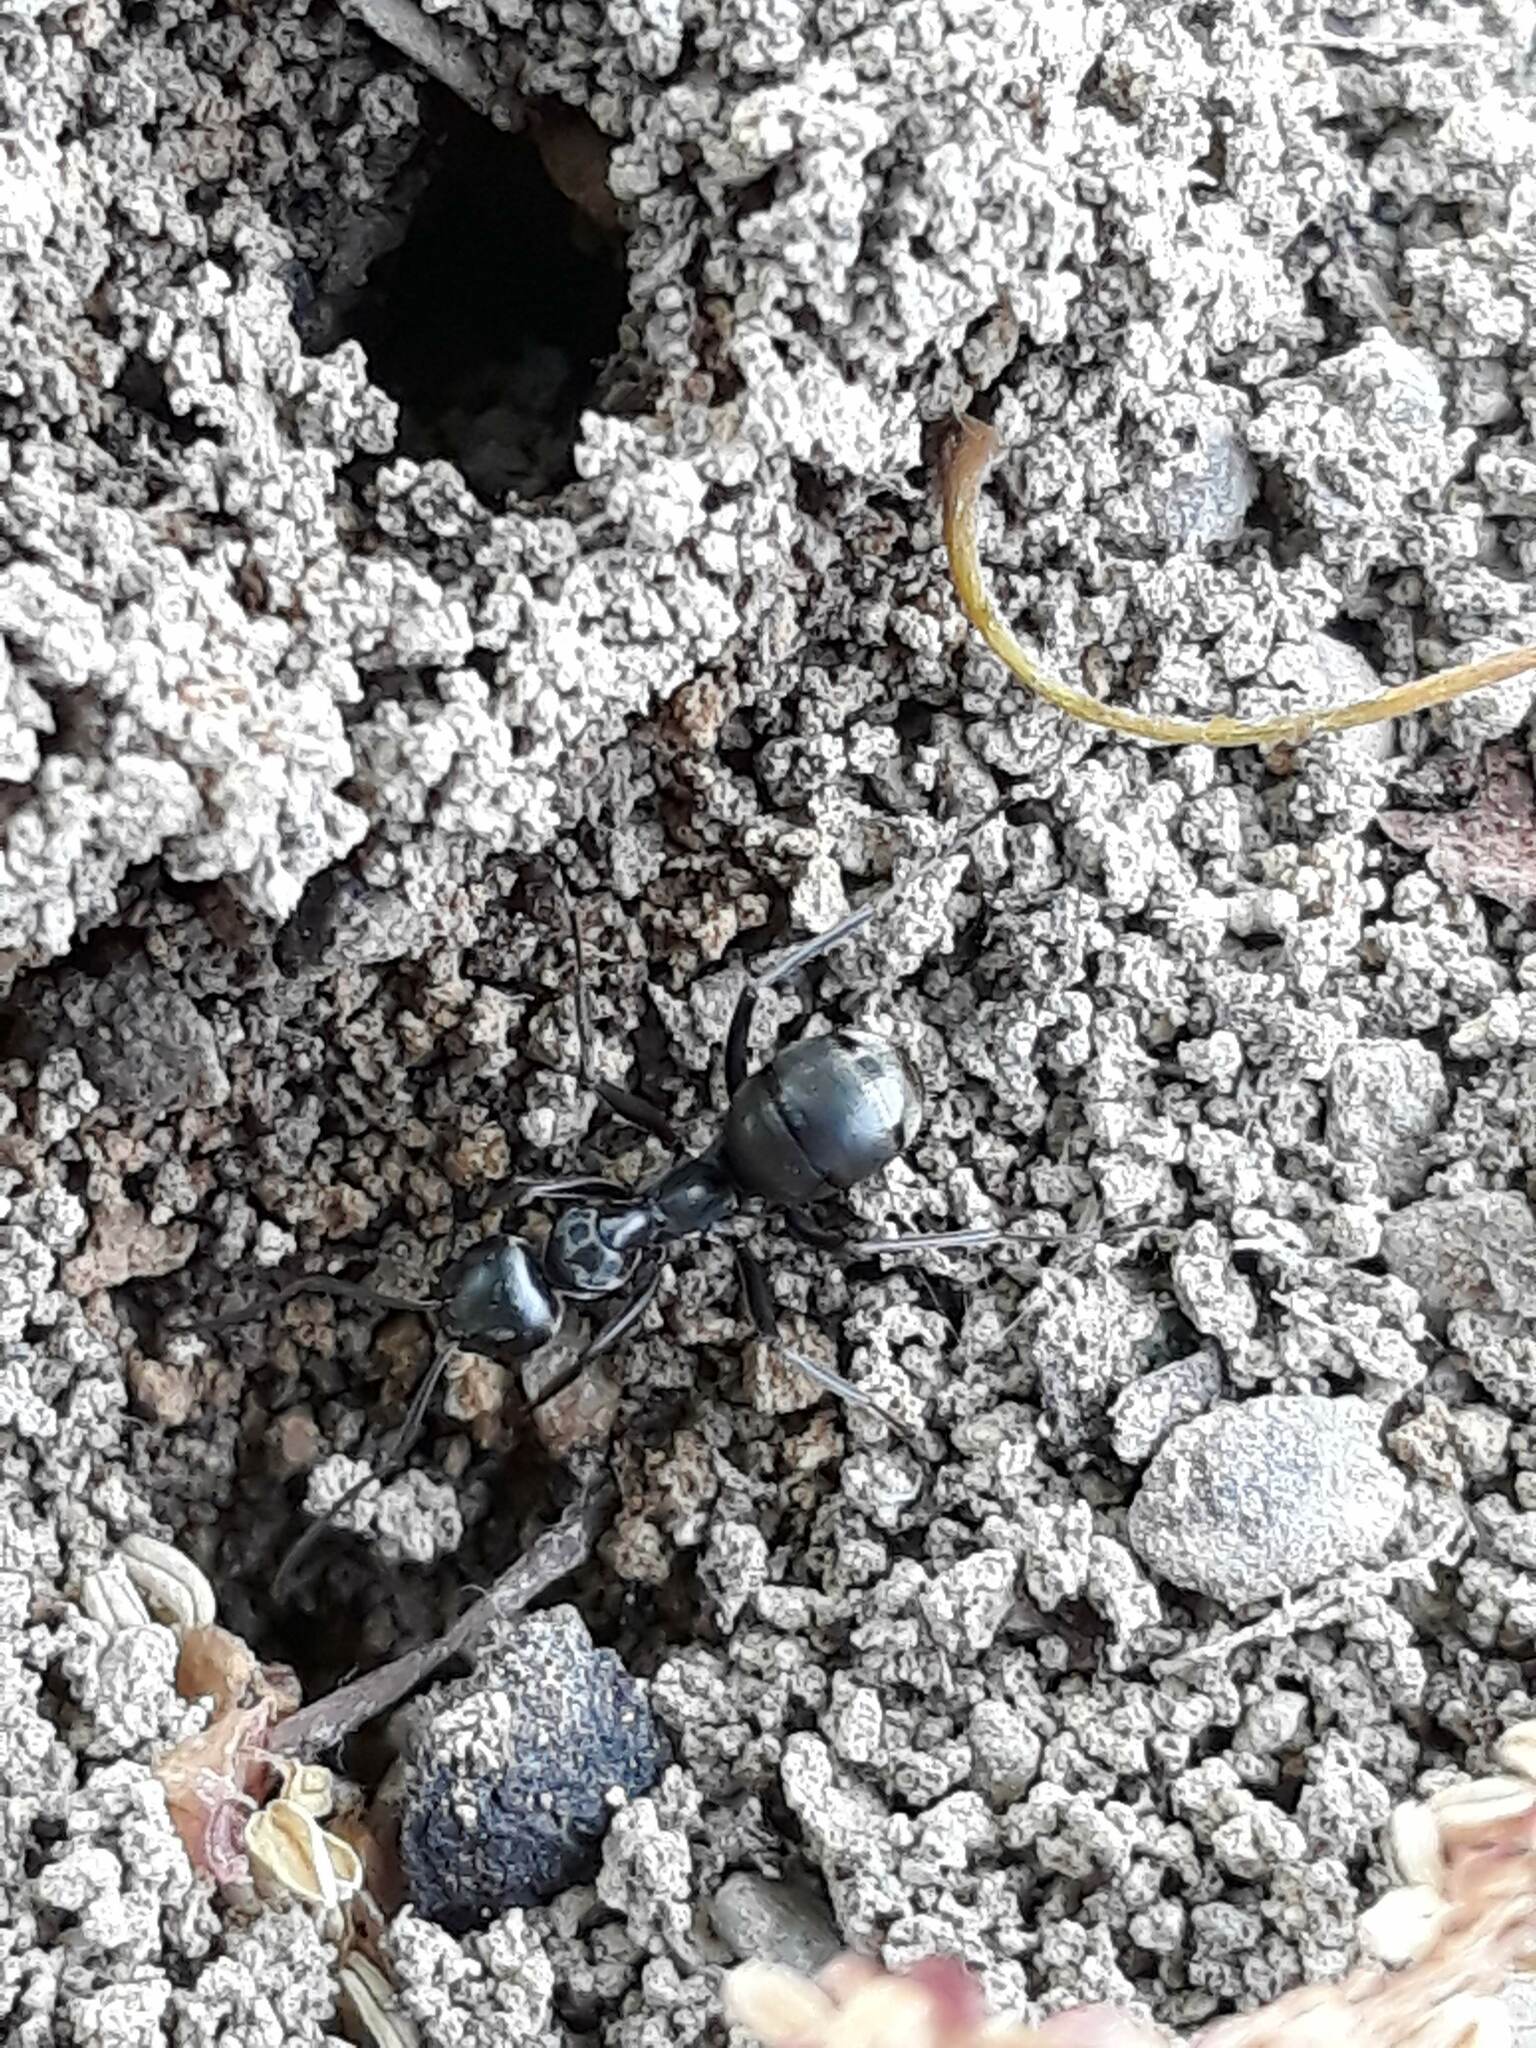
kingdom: Animalia
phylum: Arthropoda
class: Insecta
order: Hymenoptera
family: Formicidae
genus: Formica
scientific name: Formica subsericea
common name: Silky field ant
